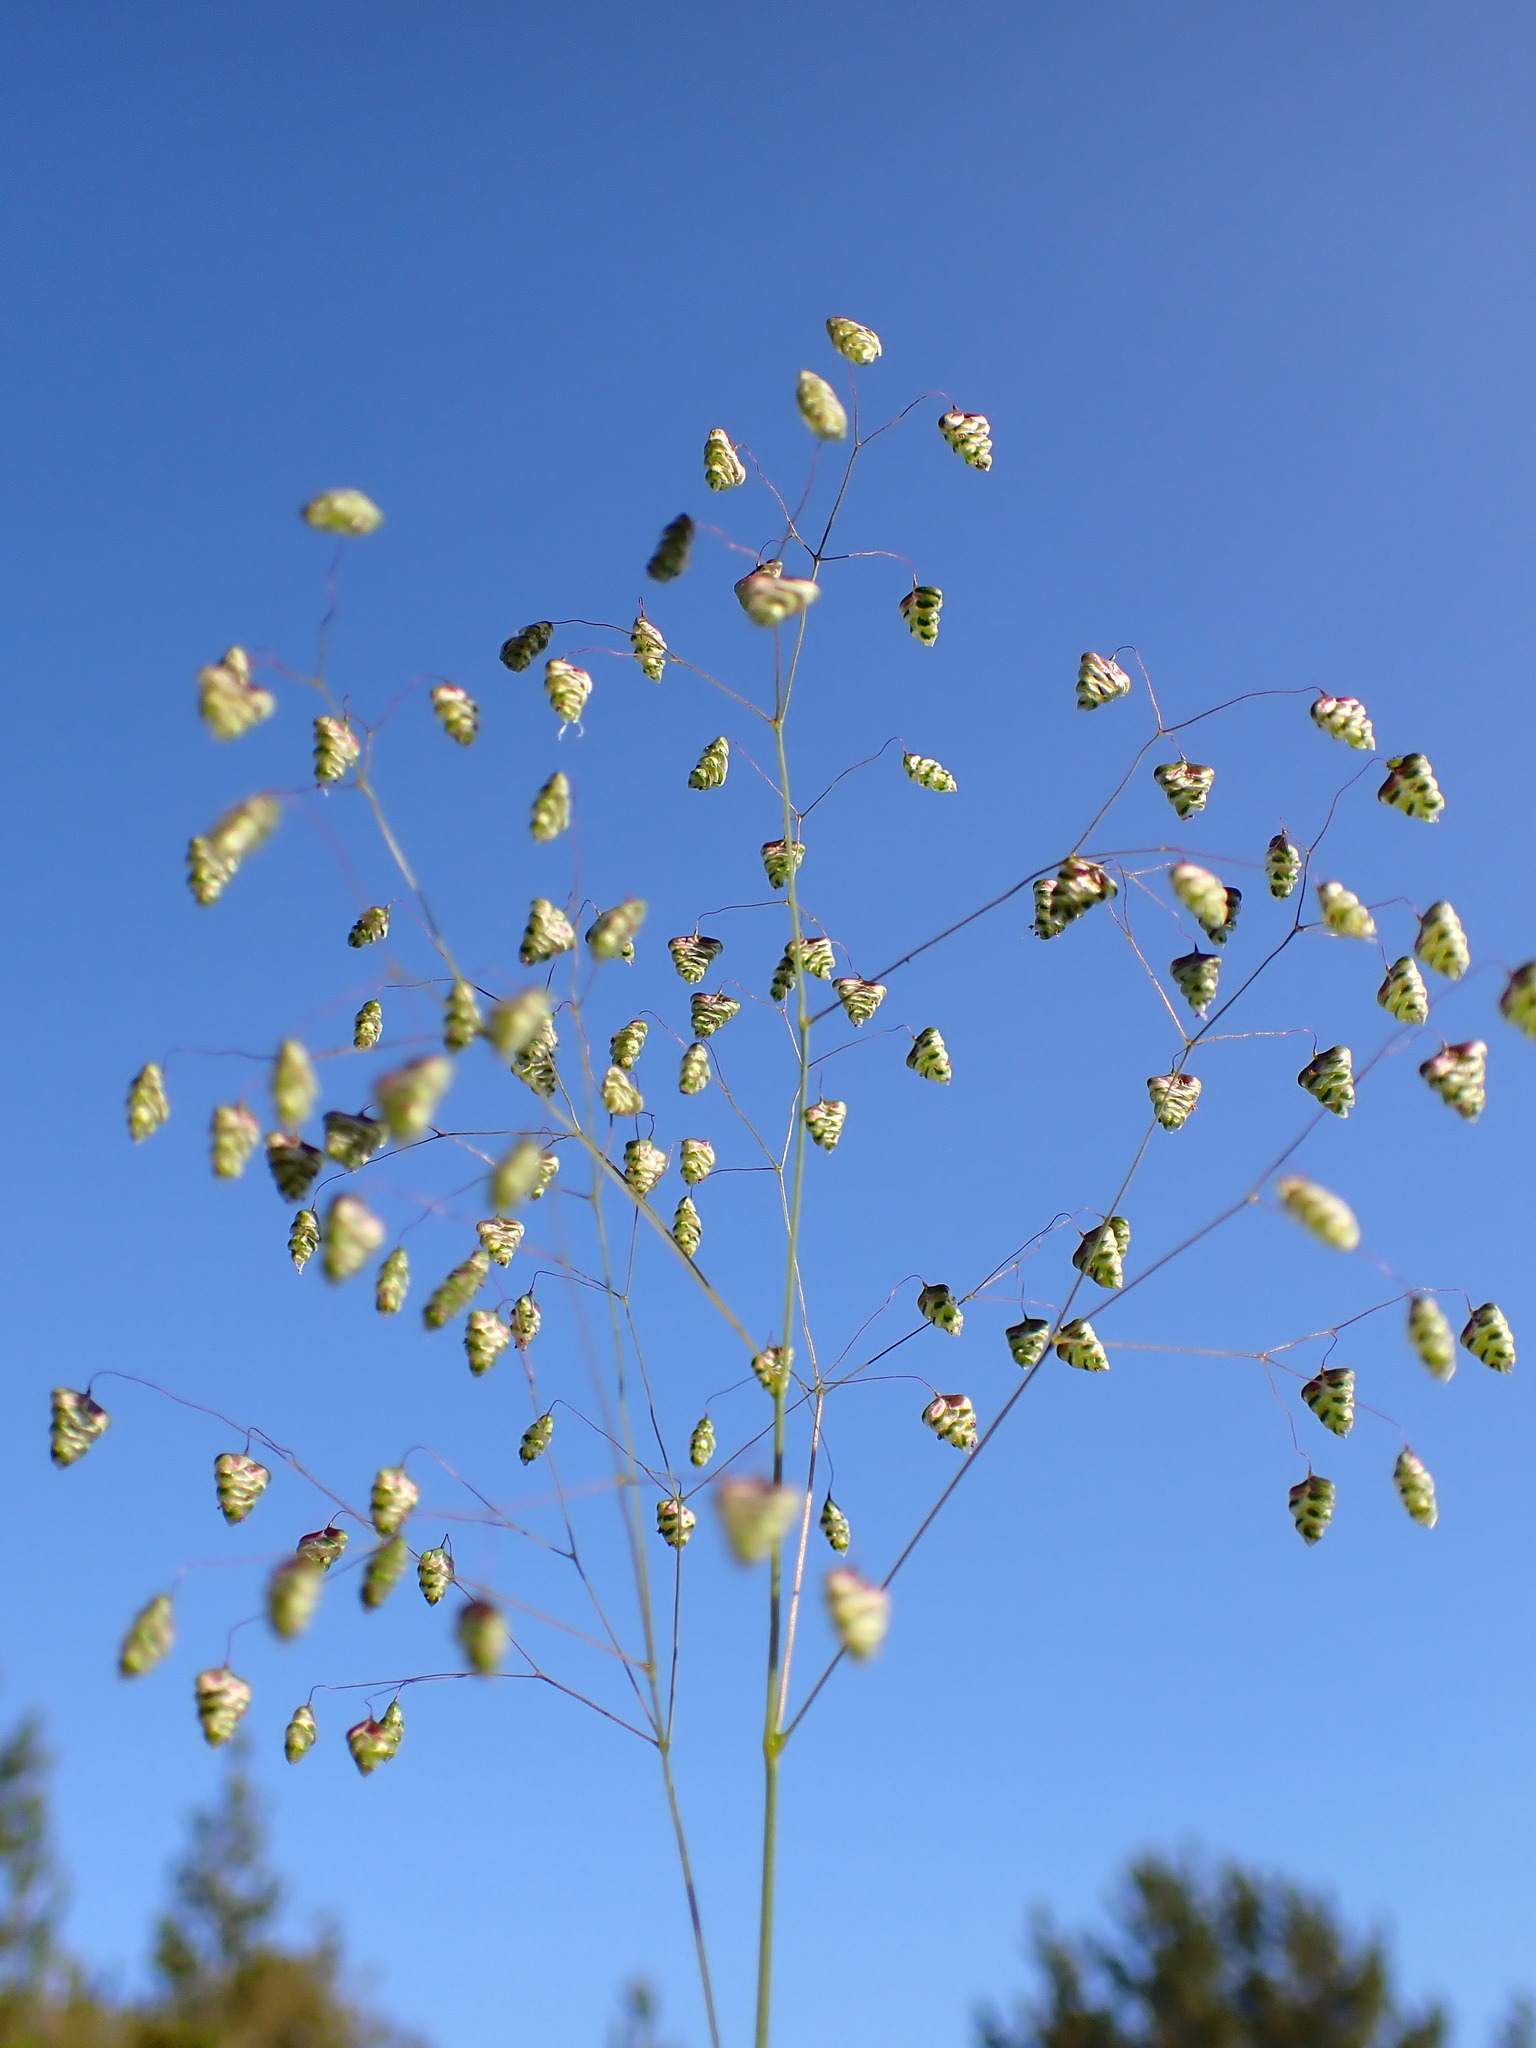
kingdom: Plantae
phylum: Tracheophyta
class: Liliopsida
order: Poales
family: Poaceae
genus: Briza
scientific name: Briza minor
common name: Lesser quaking-grass
